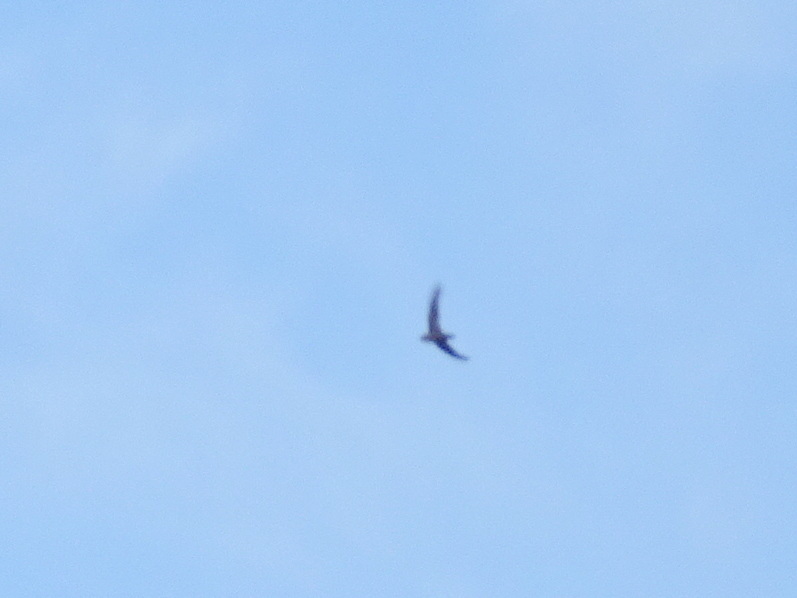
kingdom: Animalia
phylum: Chordata
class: Aves
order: Apodiformes
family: Apodidae
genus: Chaetura
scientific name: Chaetura vauxi
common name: Vaux's swift
